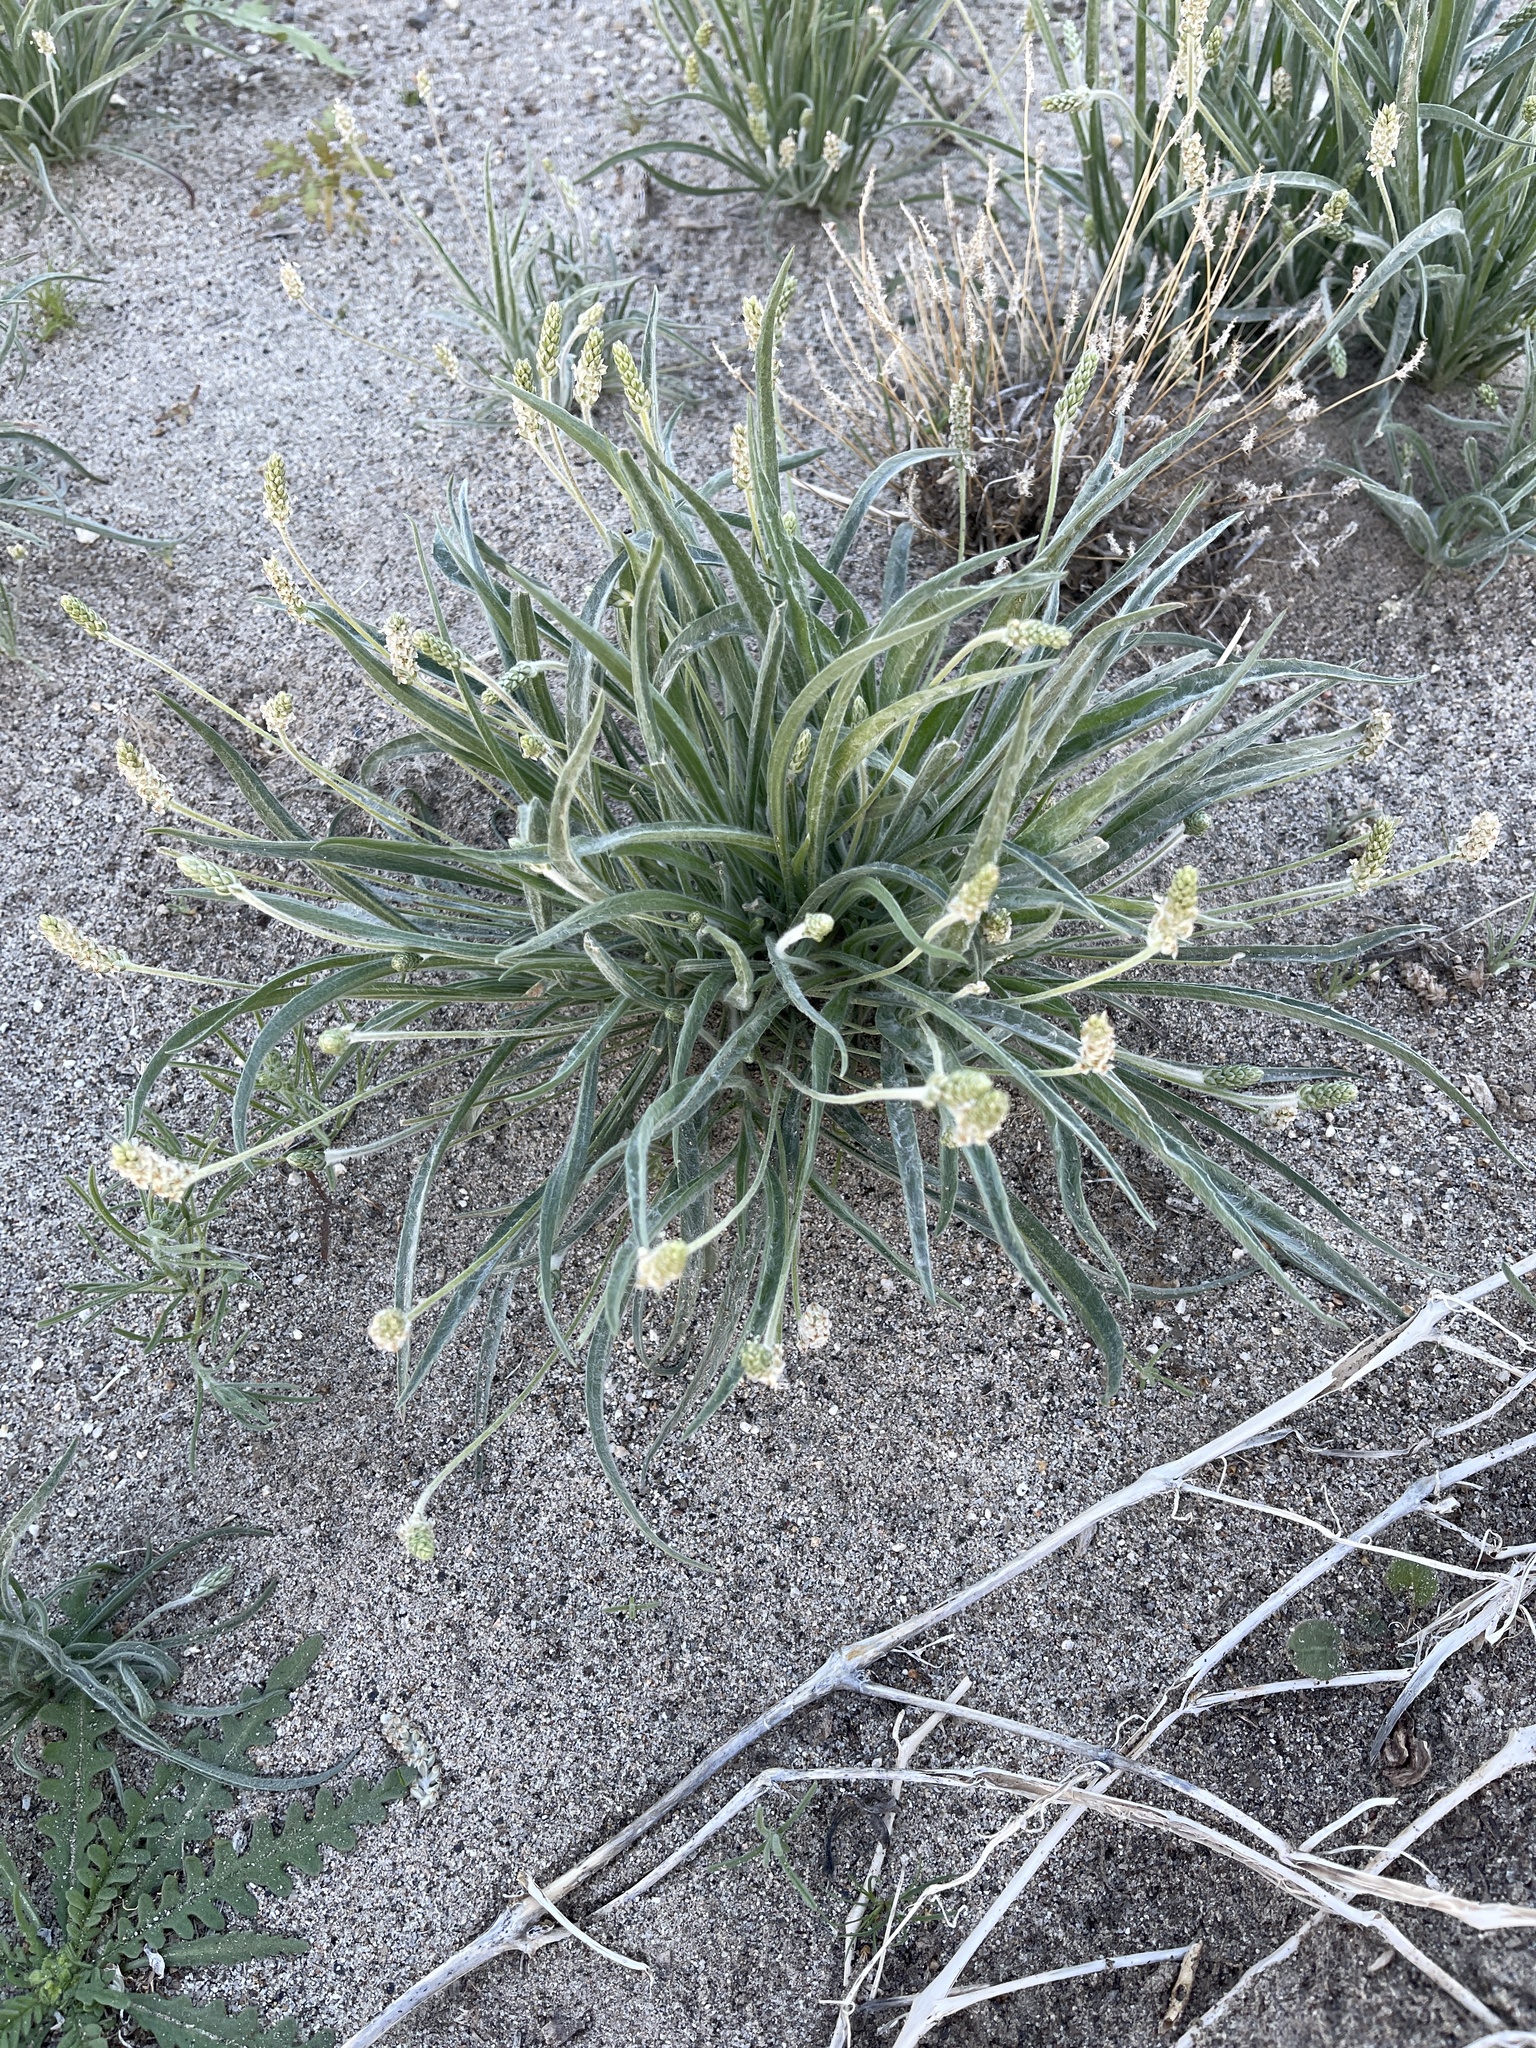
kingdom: Plantae
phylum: Tracheophyta
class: Magnoliopsida
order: Lamiales
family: Plantaginaceae
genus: Plantago
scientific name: Plantago ovata
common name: Blond plantain
